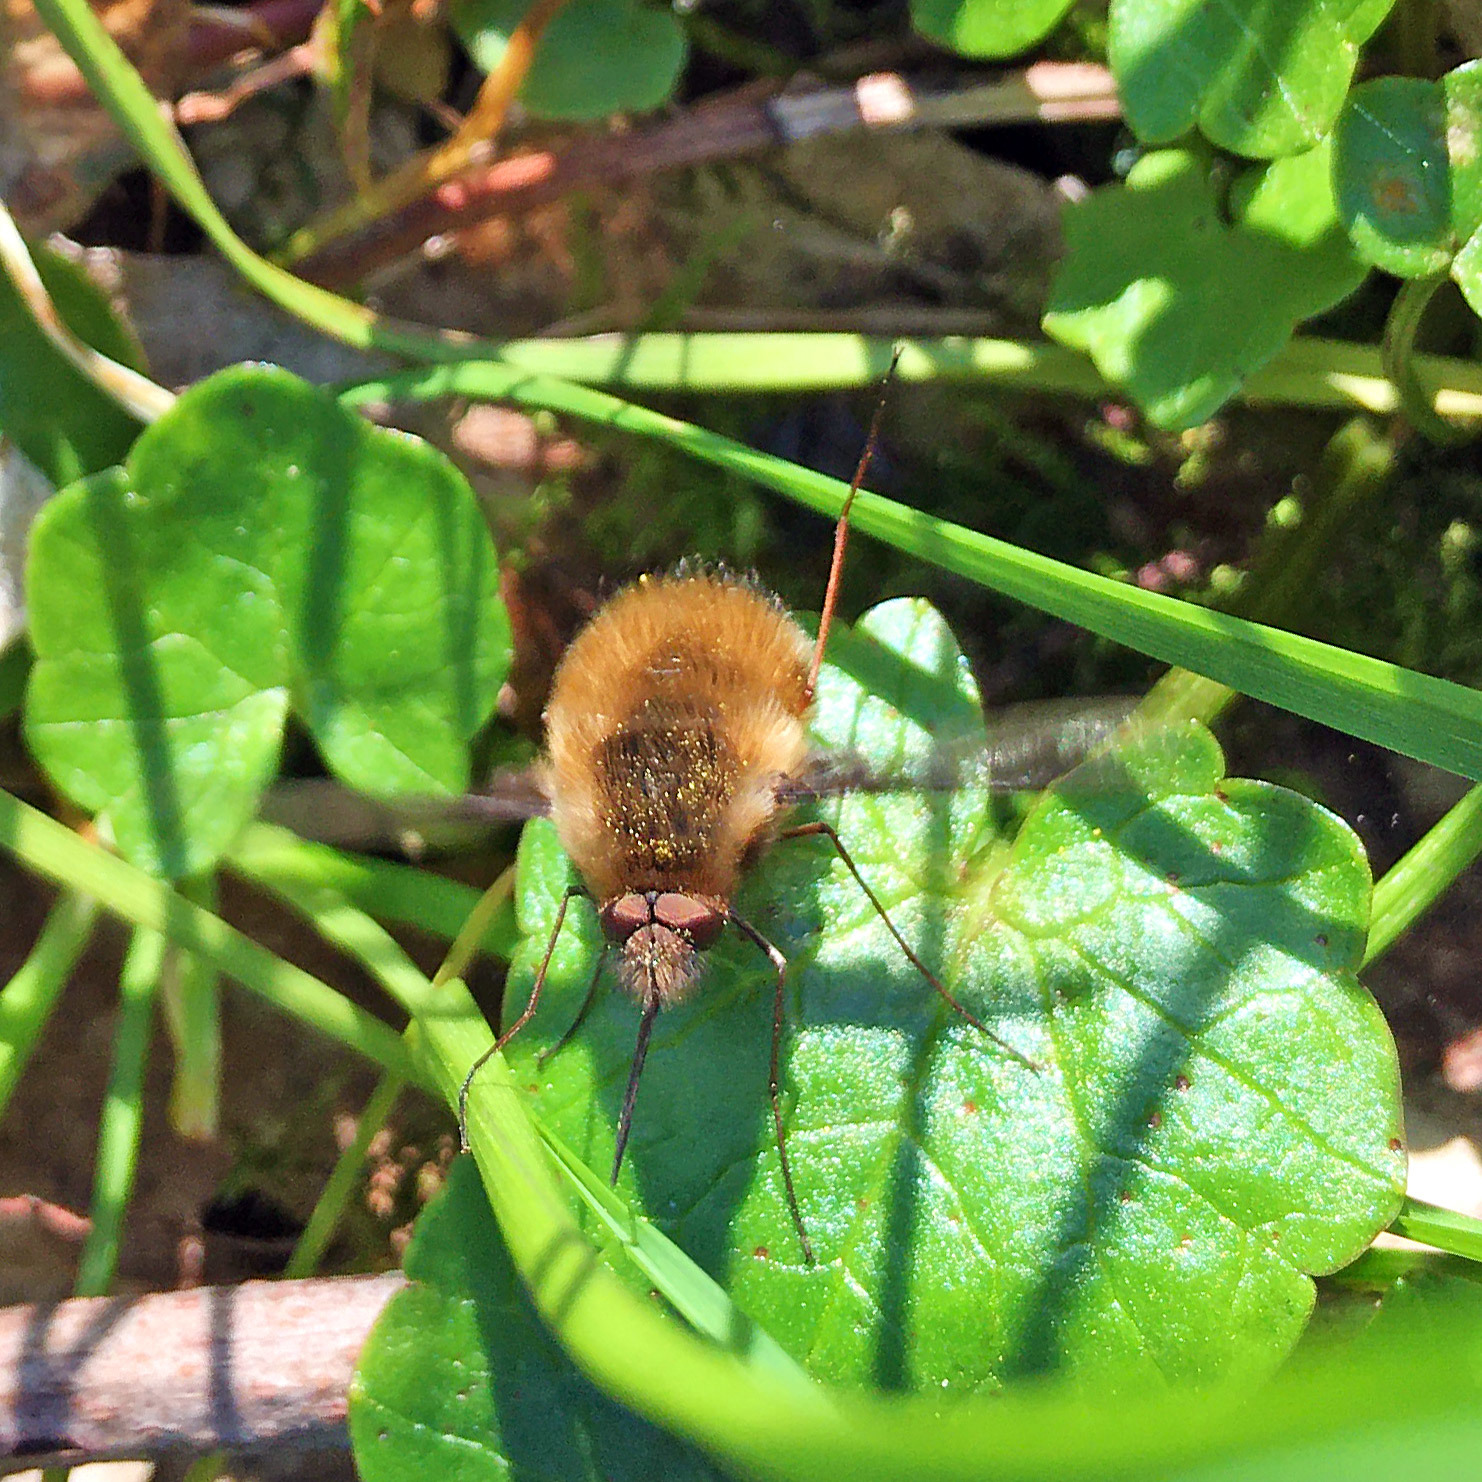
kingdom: Animalia
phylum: Arthropoda
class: Insecta
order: Diptera
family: Bombyliidae
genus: Bombylius
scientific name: Bombylius major
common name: Bee fly
